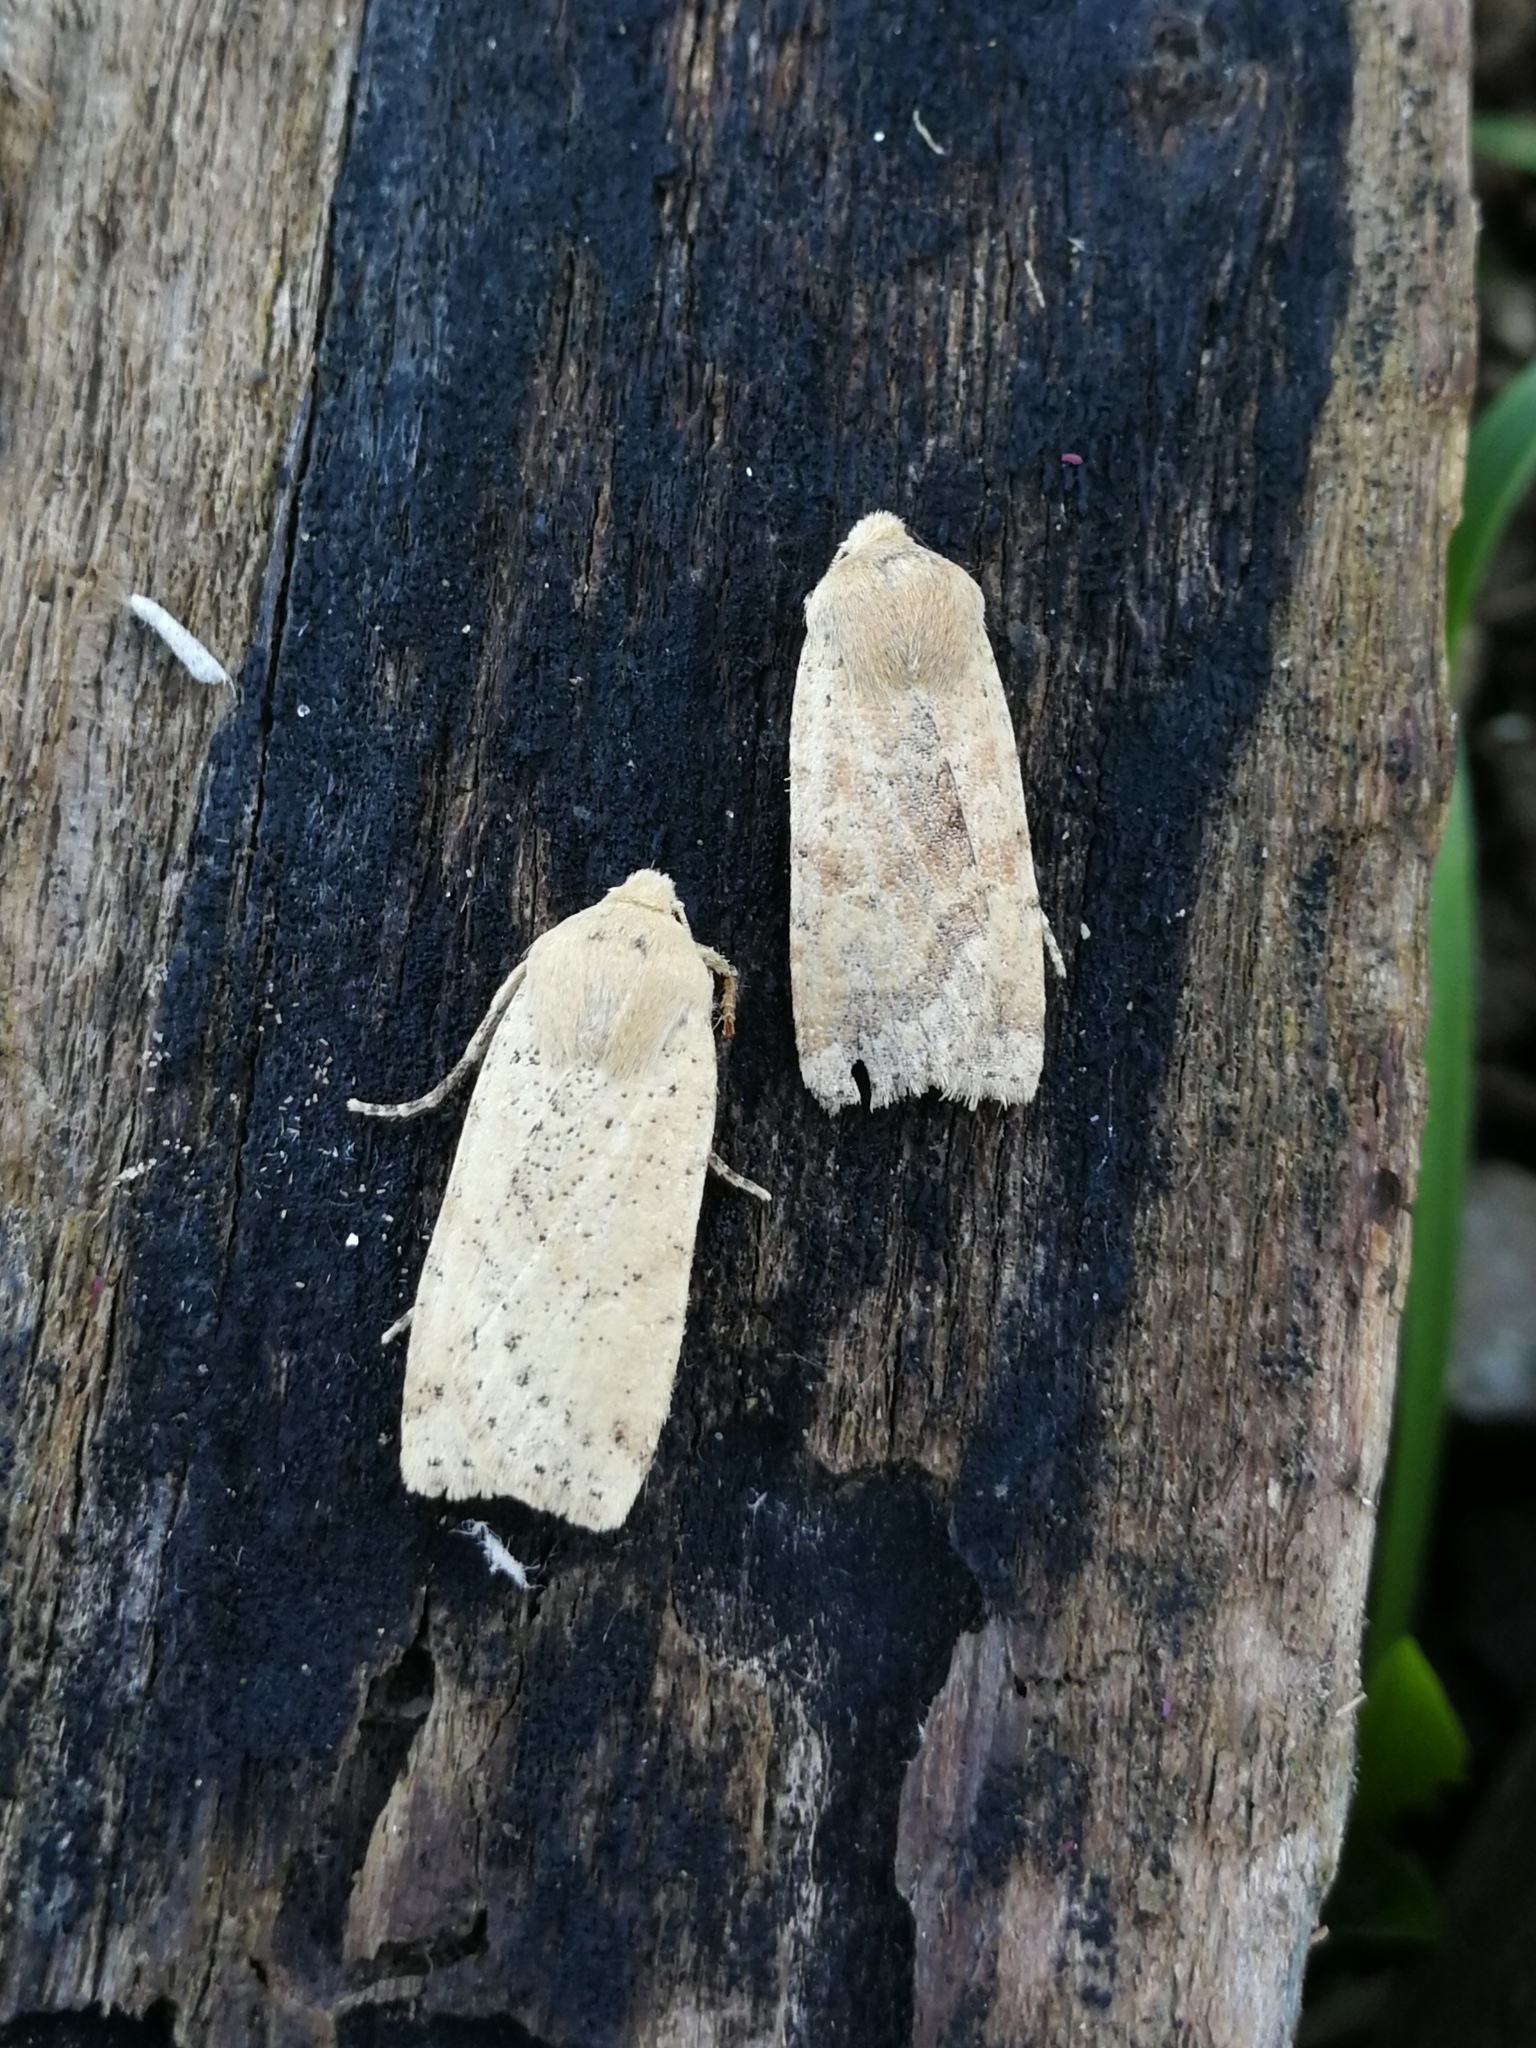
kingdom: Animalia
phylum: Arthropoda
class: Insecta
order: Lepidoptera
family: Noctuidae
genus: Conistra
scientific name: Conistra daubei
